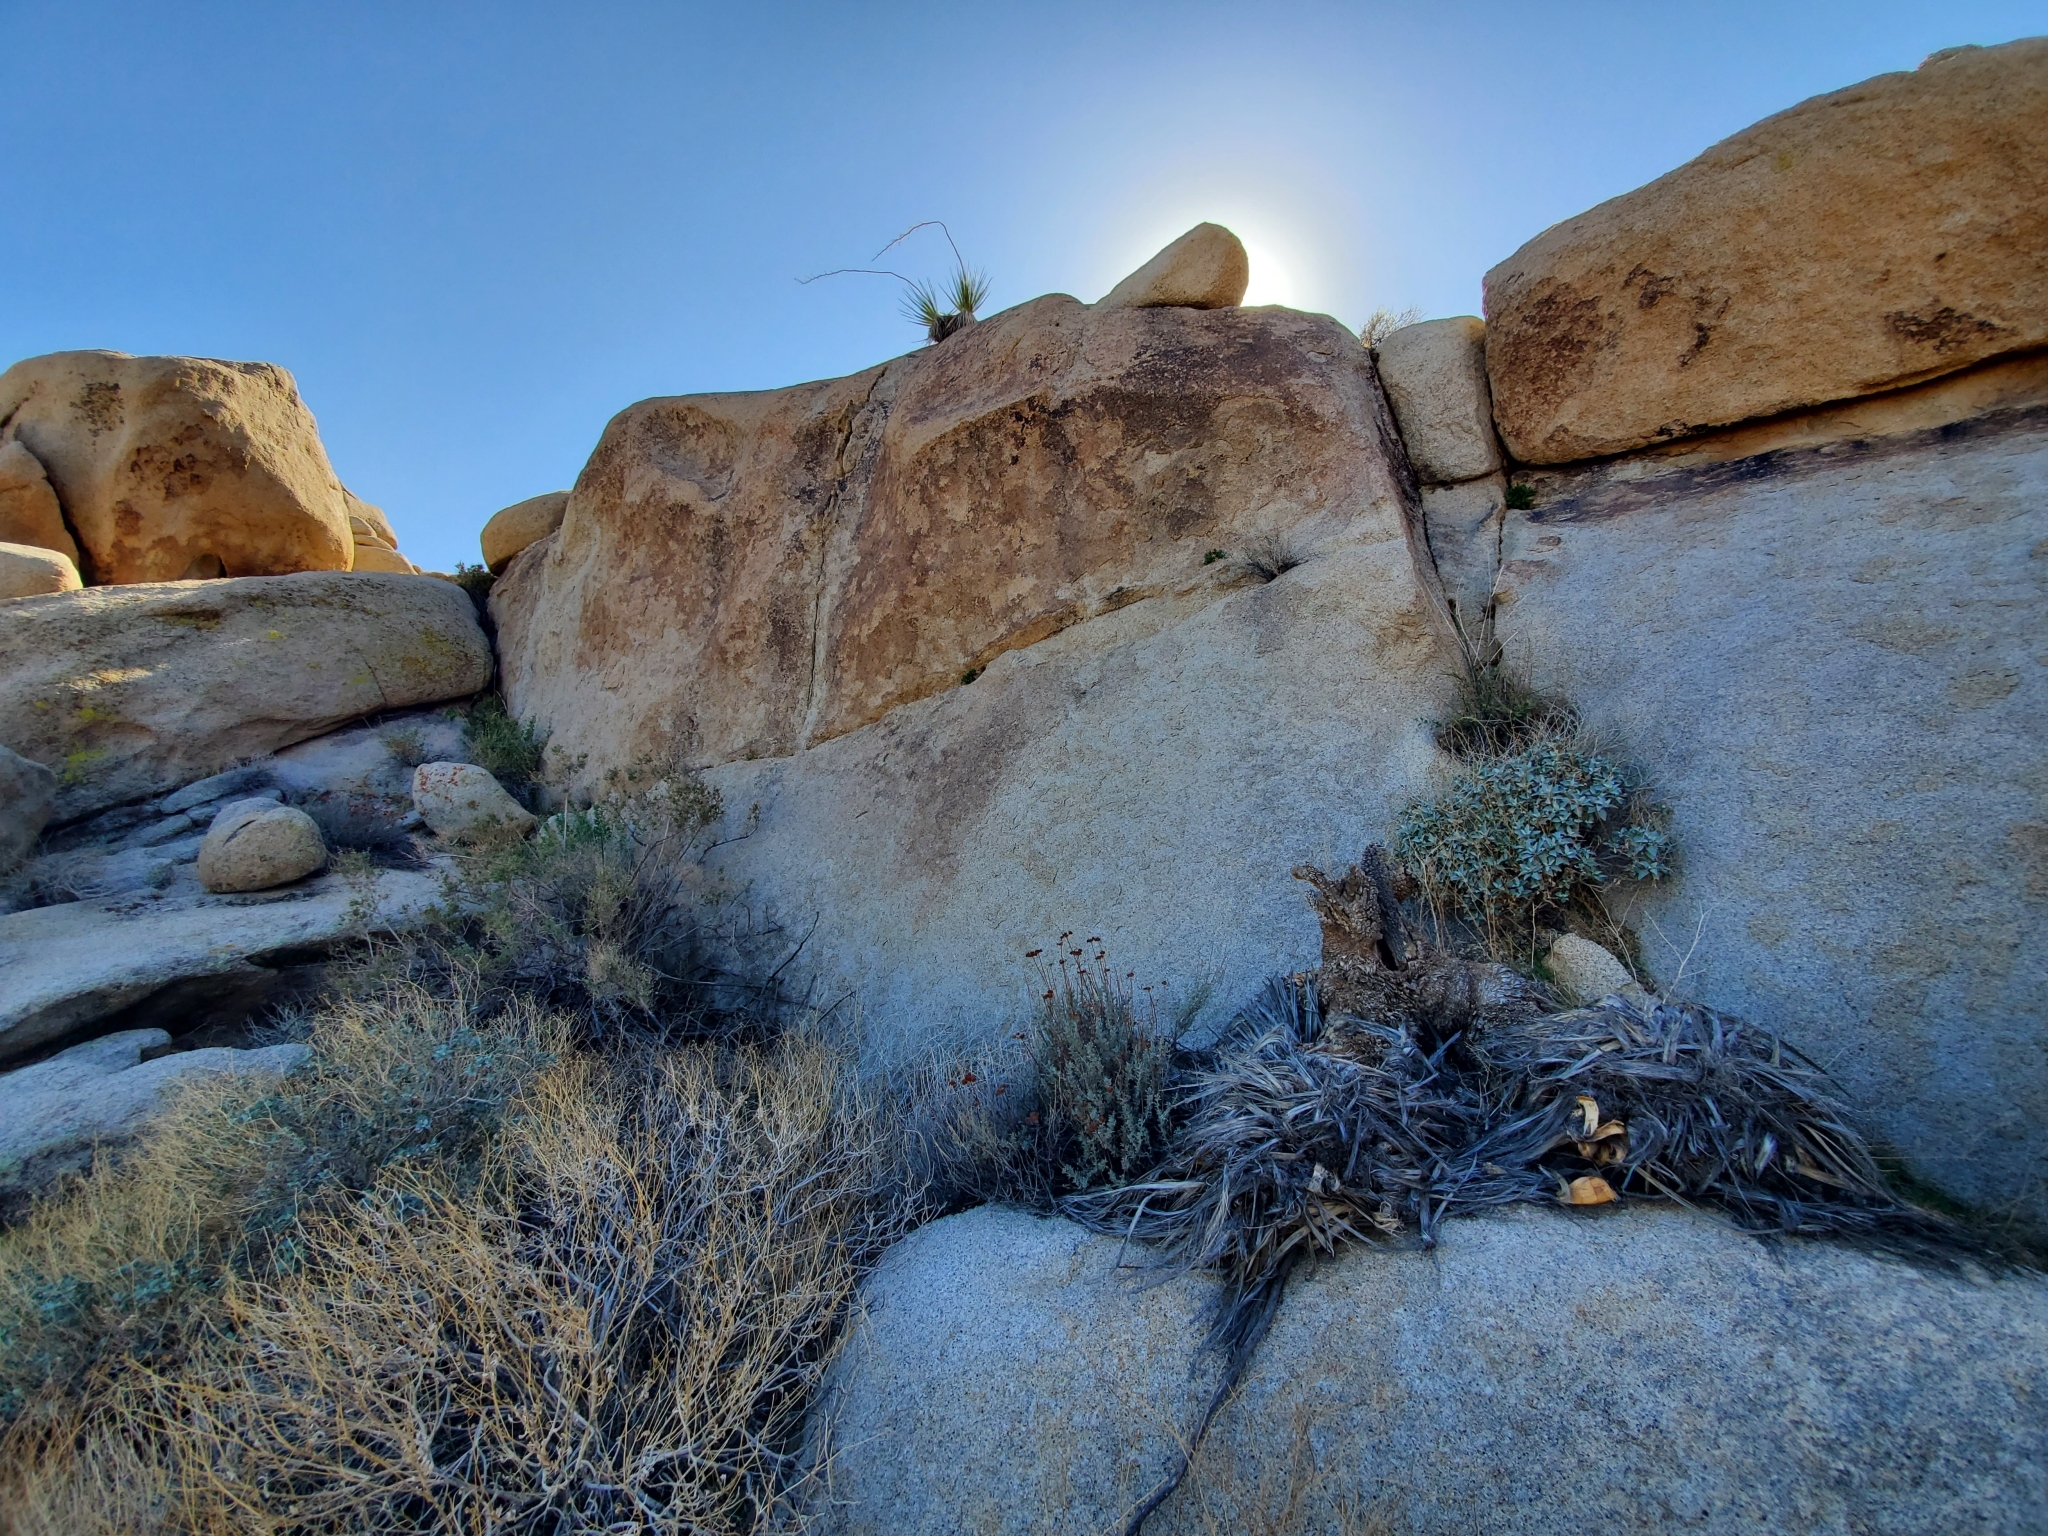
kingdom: Plantae
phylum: Tracheophyta
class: Liliopsida
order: Asparagales
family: Asparagaceae
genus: Nolina
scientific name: Nolina bigelovii
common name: Bigelow bear-grass
